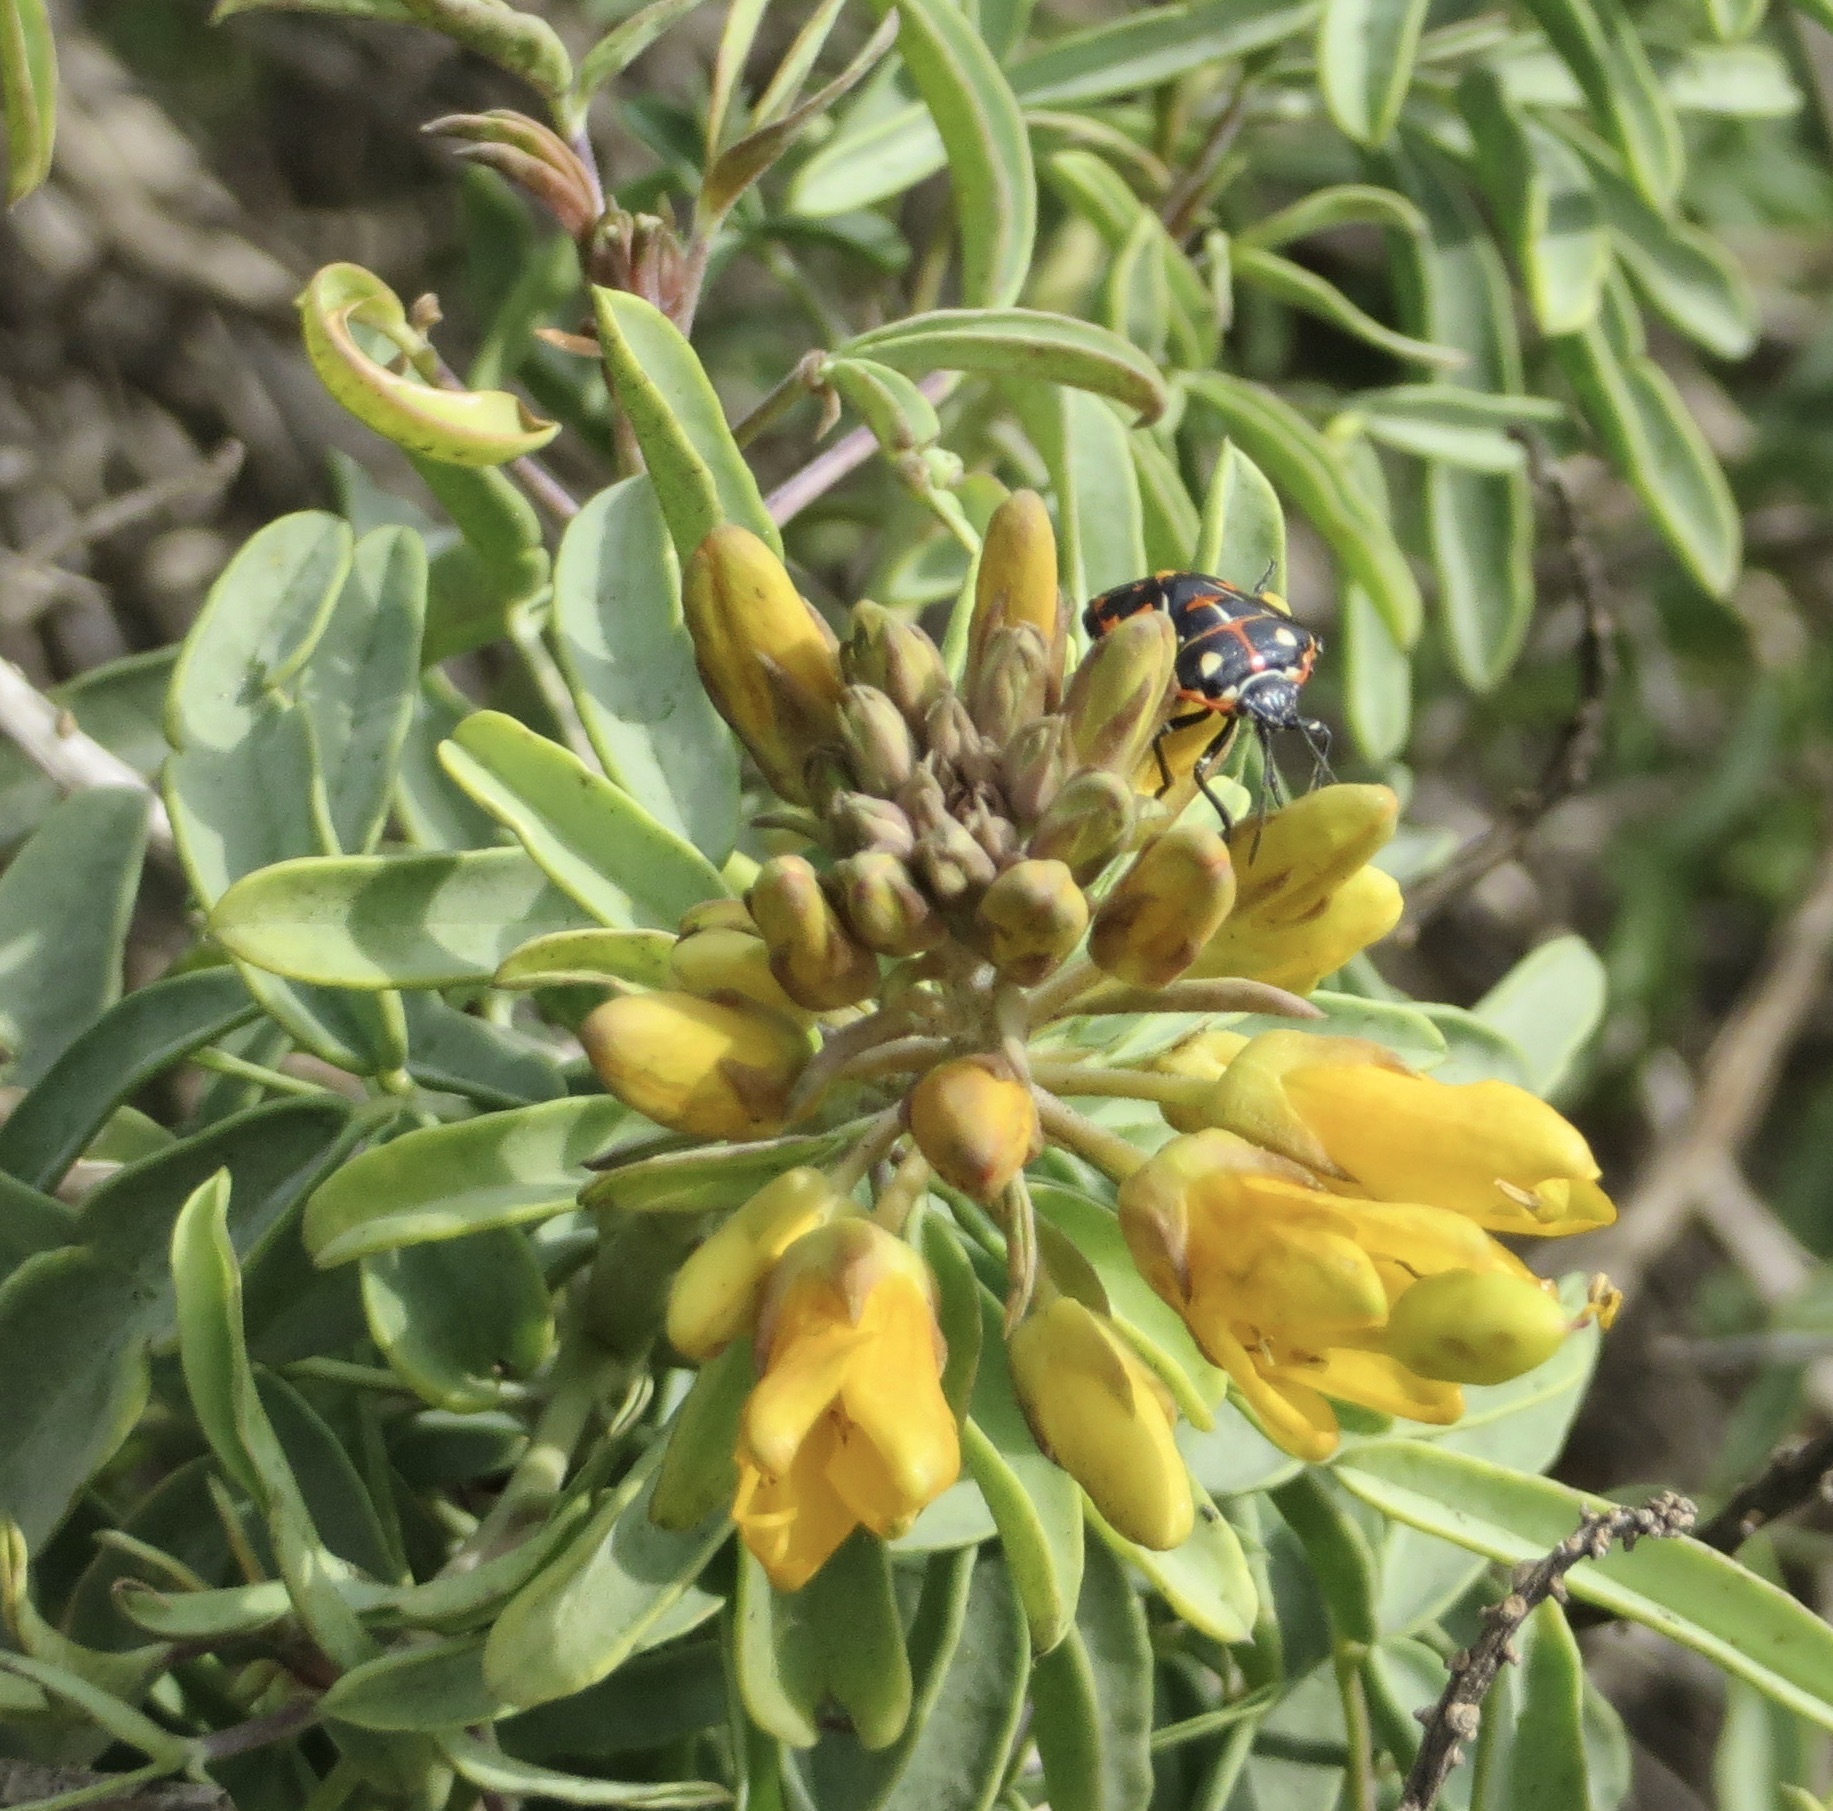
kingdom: Animalia
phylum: Arthropoda
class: Insecta
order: Hemiptera
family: Pentatomidae
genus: Murgantia
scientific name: Murgantia histrionica
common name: Harlequin bug
